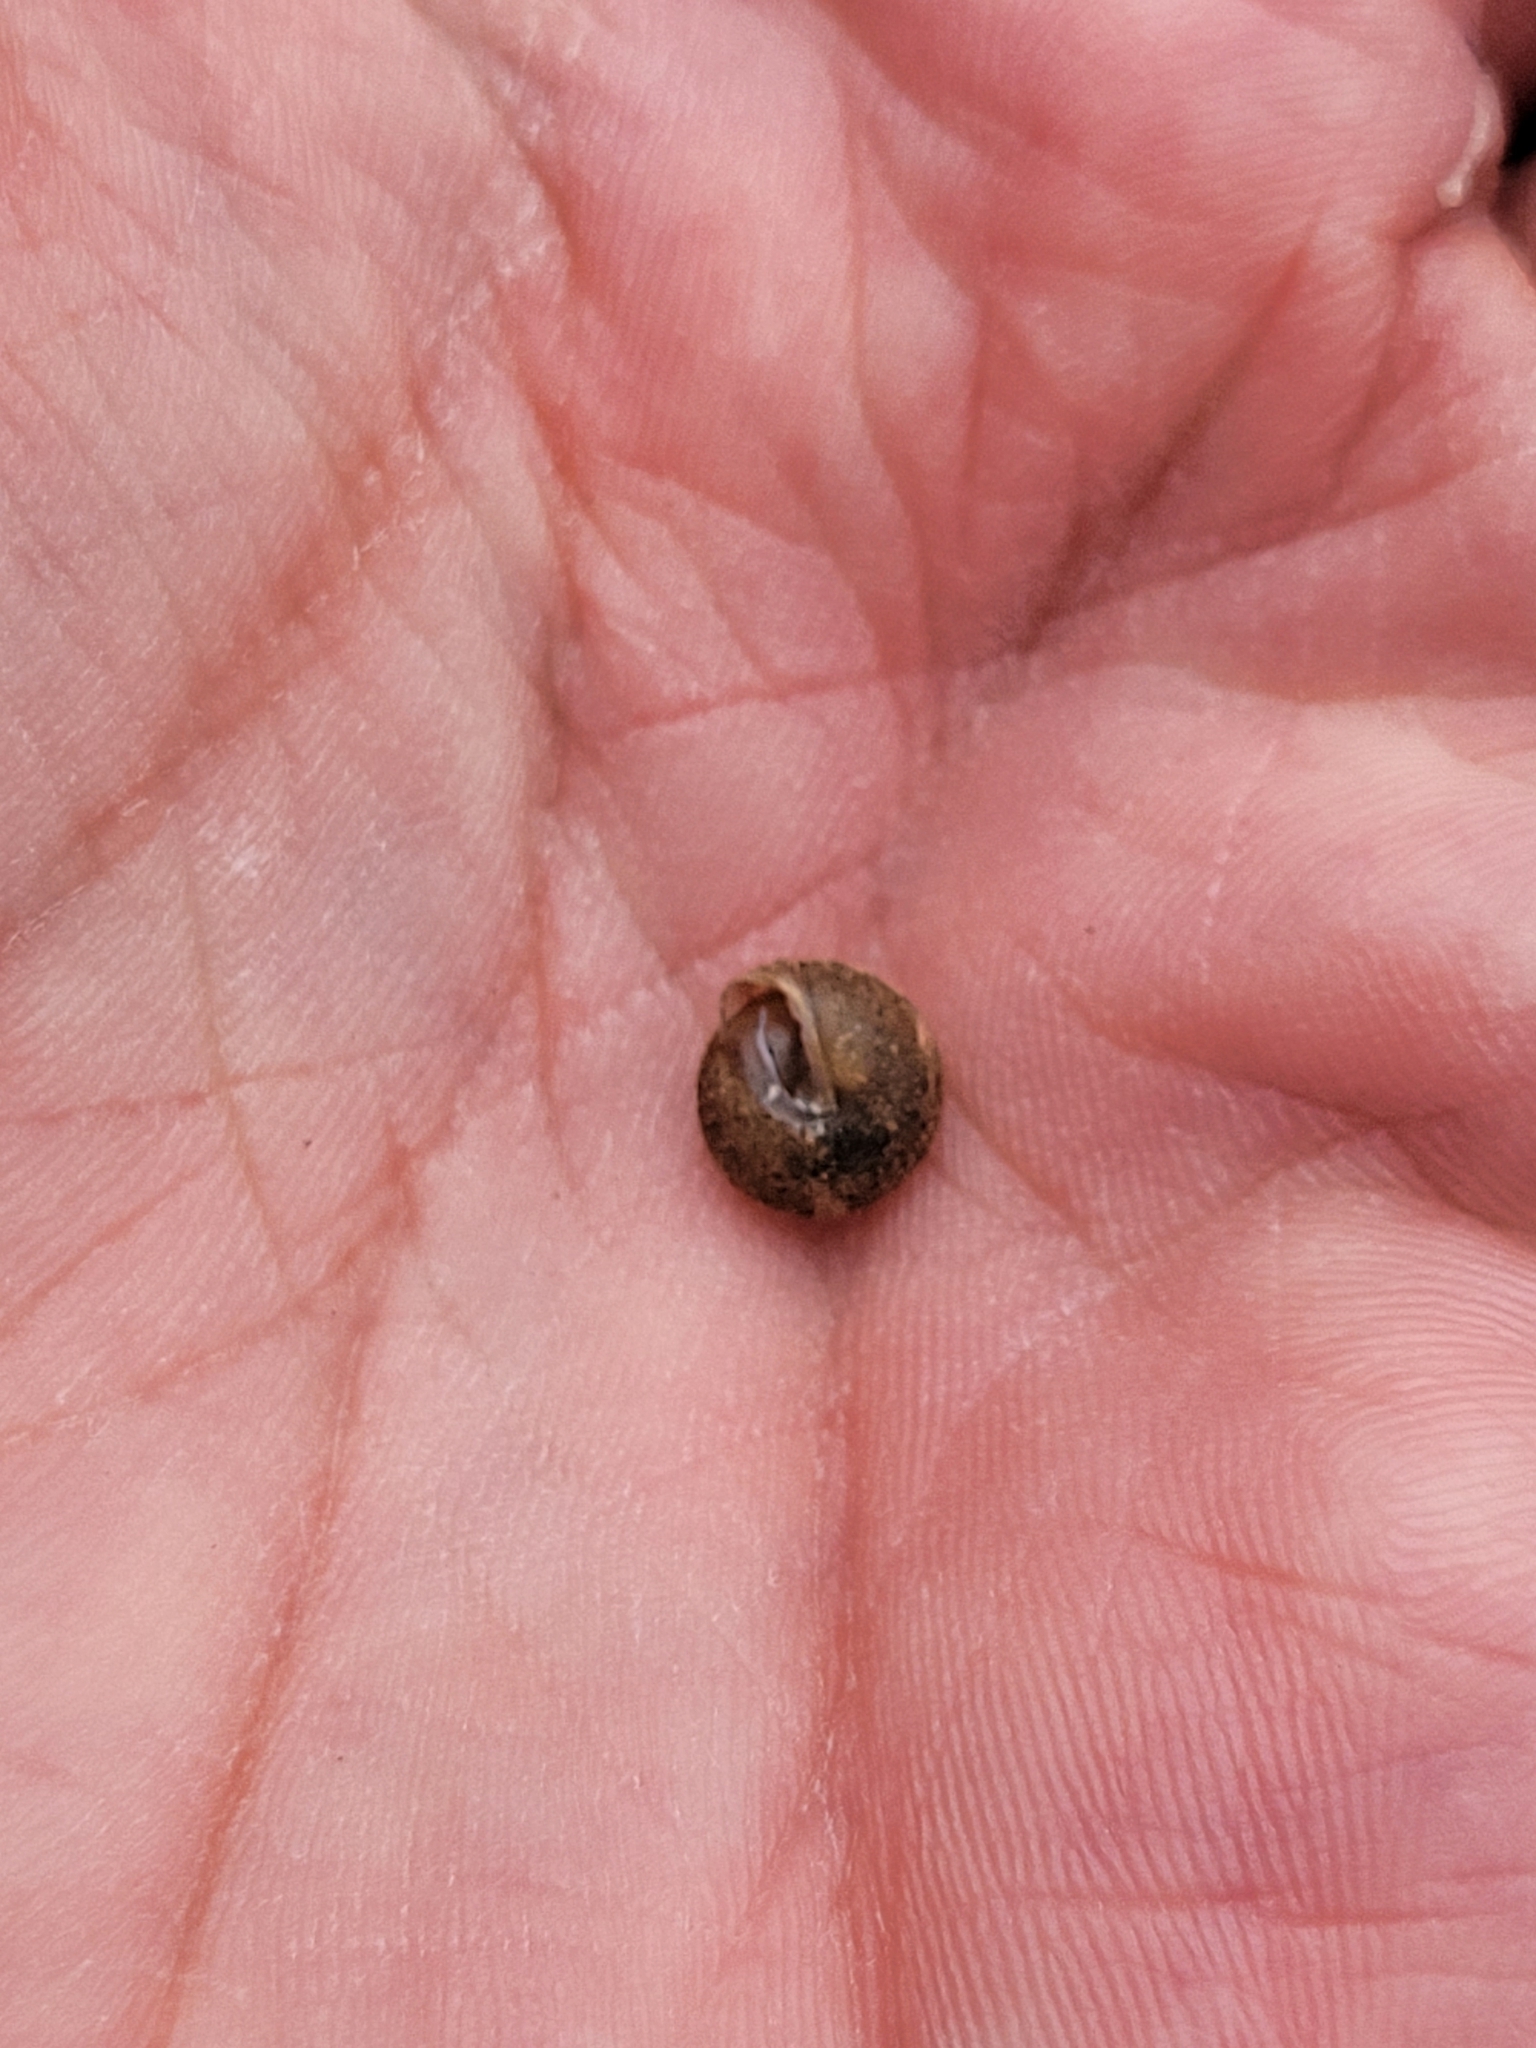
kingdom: Animalia
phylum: Mollusca
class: Gastropoda
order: Stylommatophora
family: Polygyridae
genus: Stenotrema
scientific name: Stenotrema hirsutum
